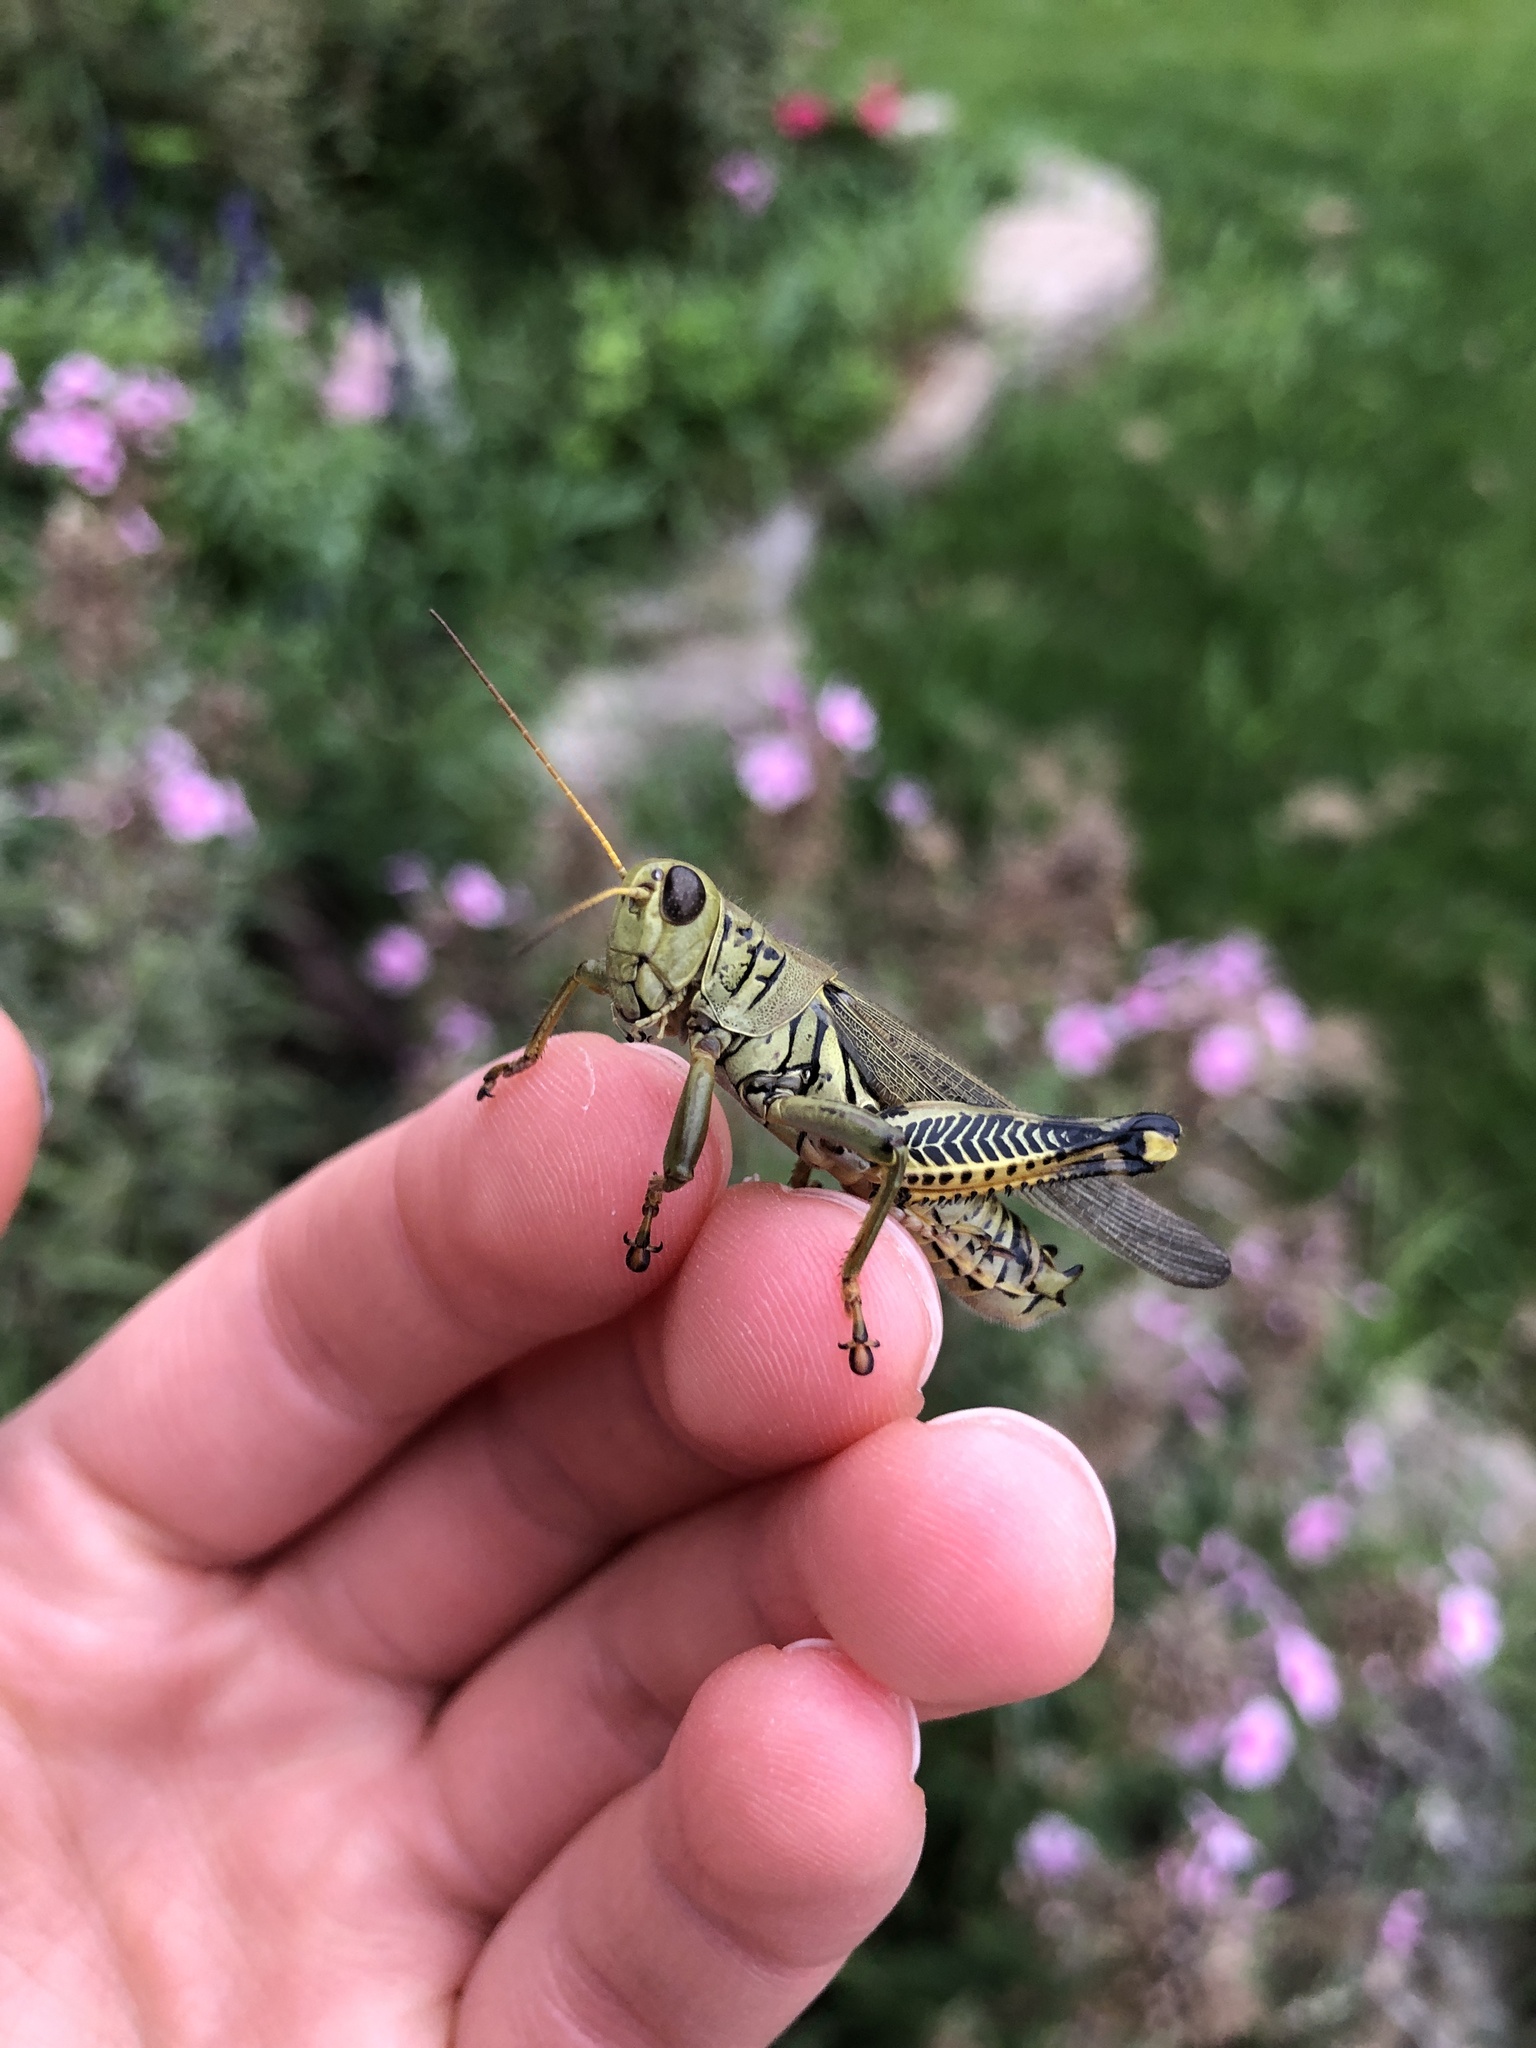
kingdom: Animalia
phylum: Arthropoda
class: Insecta
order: Orthoptera
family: Acrididae
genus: Melanoplus
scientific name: Melanoplus differentialis
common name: Differential grasshopper
